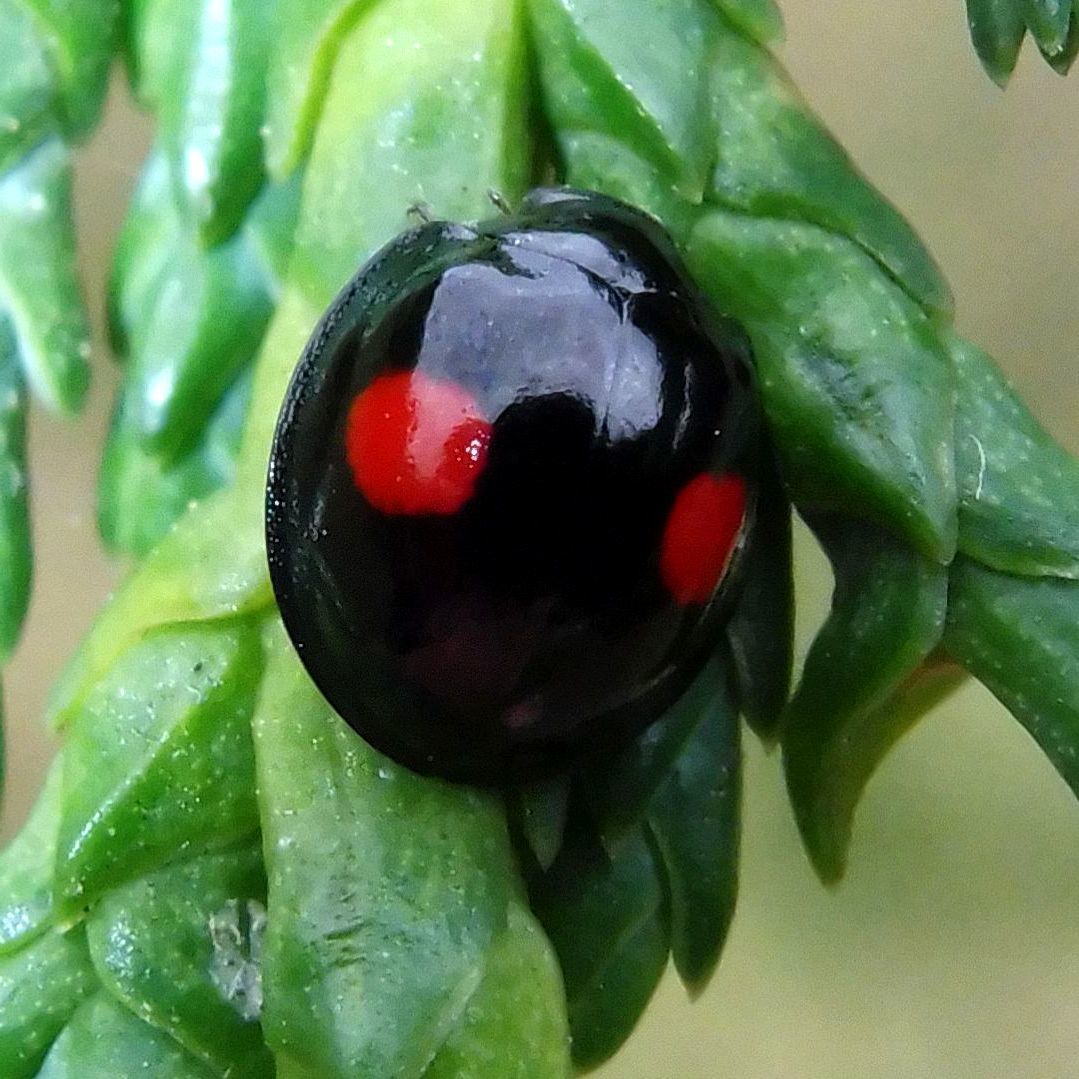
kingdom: Animalia
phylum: Arthropoda
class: Insecta
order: Coleoptera
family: Coccinellidae
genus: Chilocorus
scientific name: Chilocorus renipustulatus
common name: Kidney-spot ladybird
